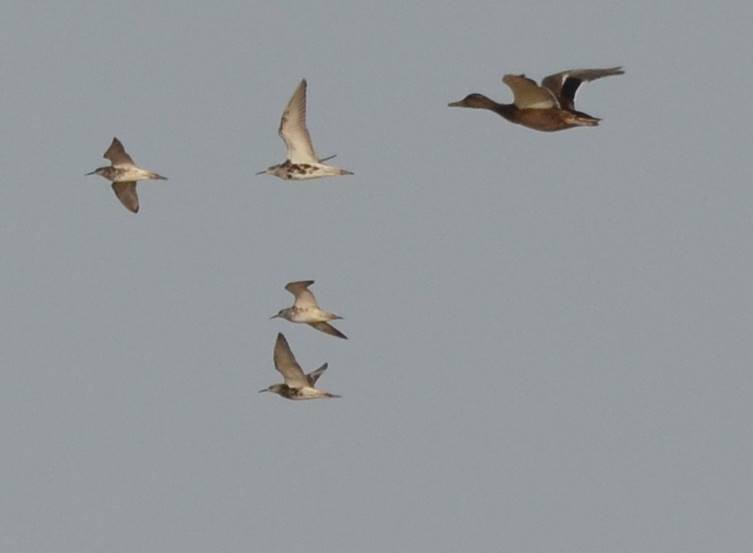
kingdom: Animalia
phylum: Chordata
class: Aves
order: Charadriiformes
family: Scolopacidae
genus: Calidris
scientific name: Calidris pugnax
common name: Ruff
